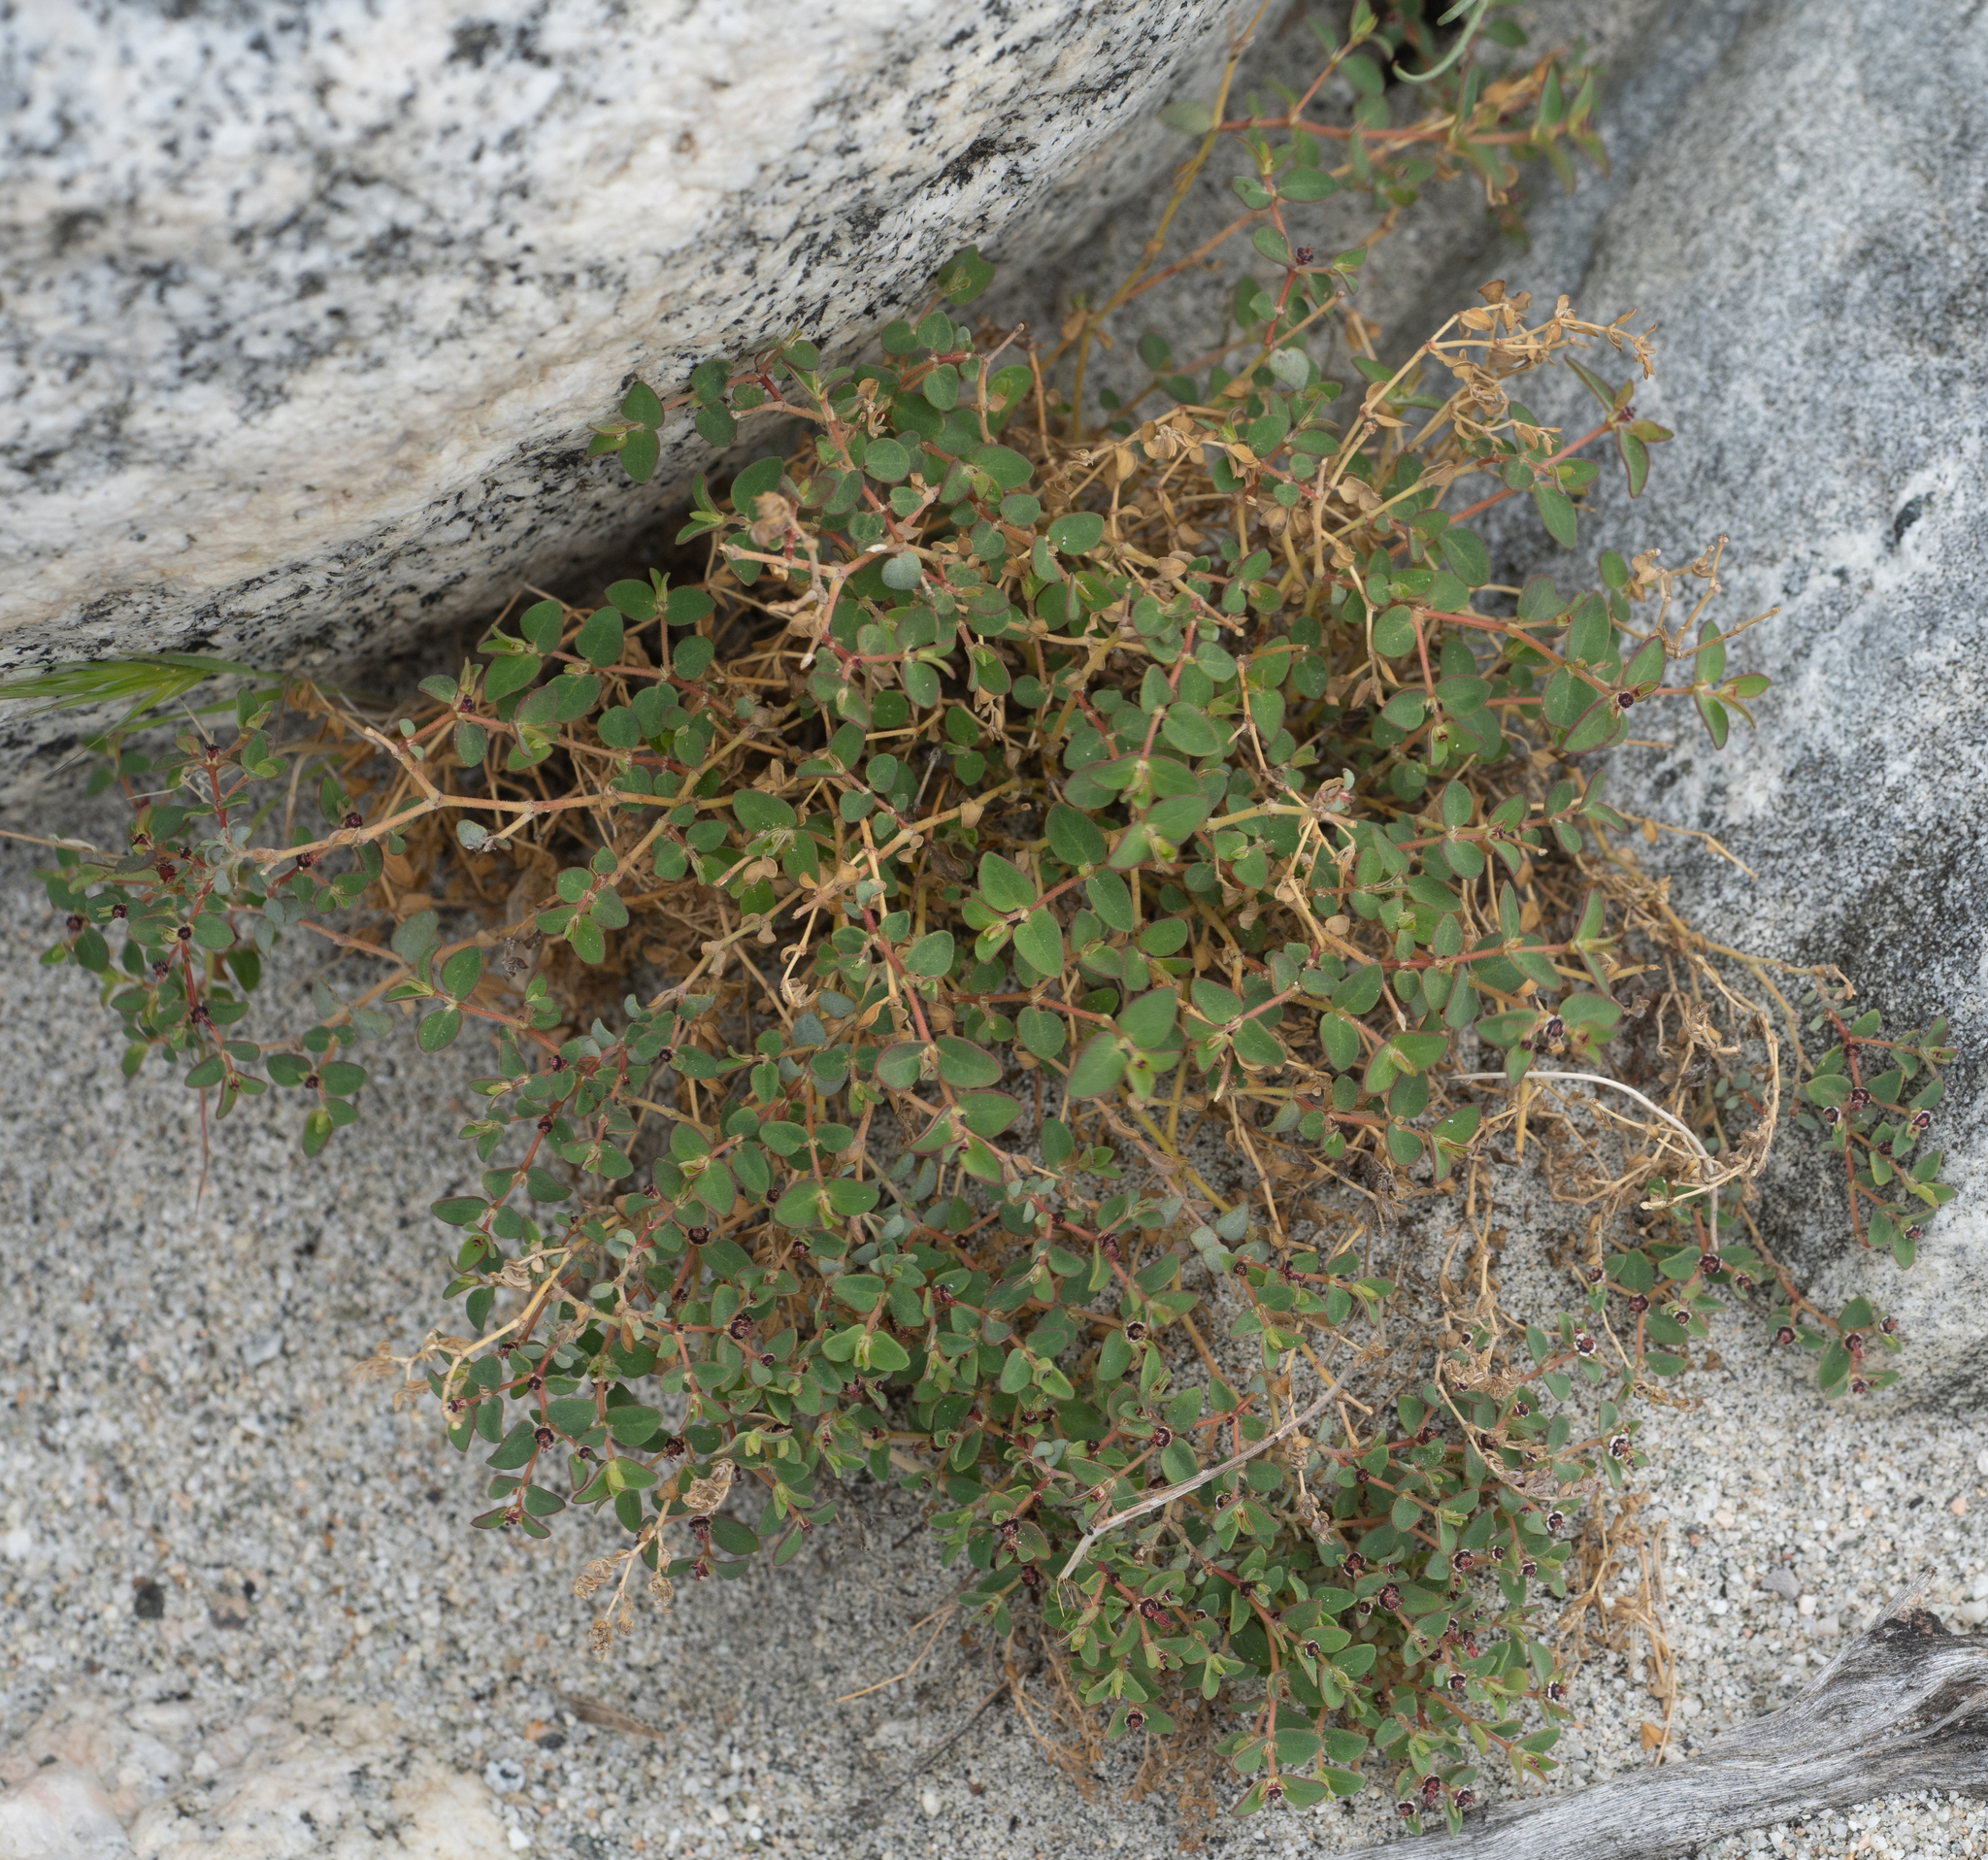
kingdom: Plantae
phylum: Tracheophyta
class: Magnoliopsida
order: Malpighiales
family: Euphorbiaceae
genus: Euphorbia
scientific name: Euphorbia polycarpa
